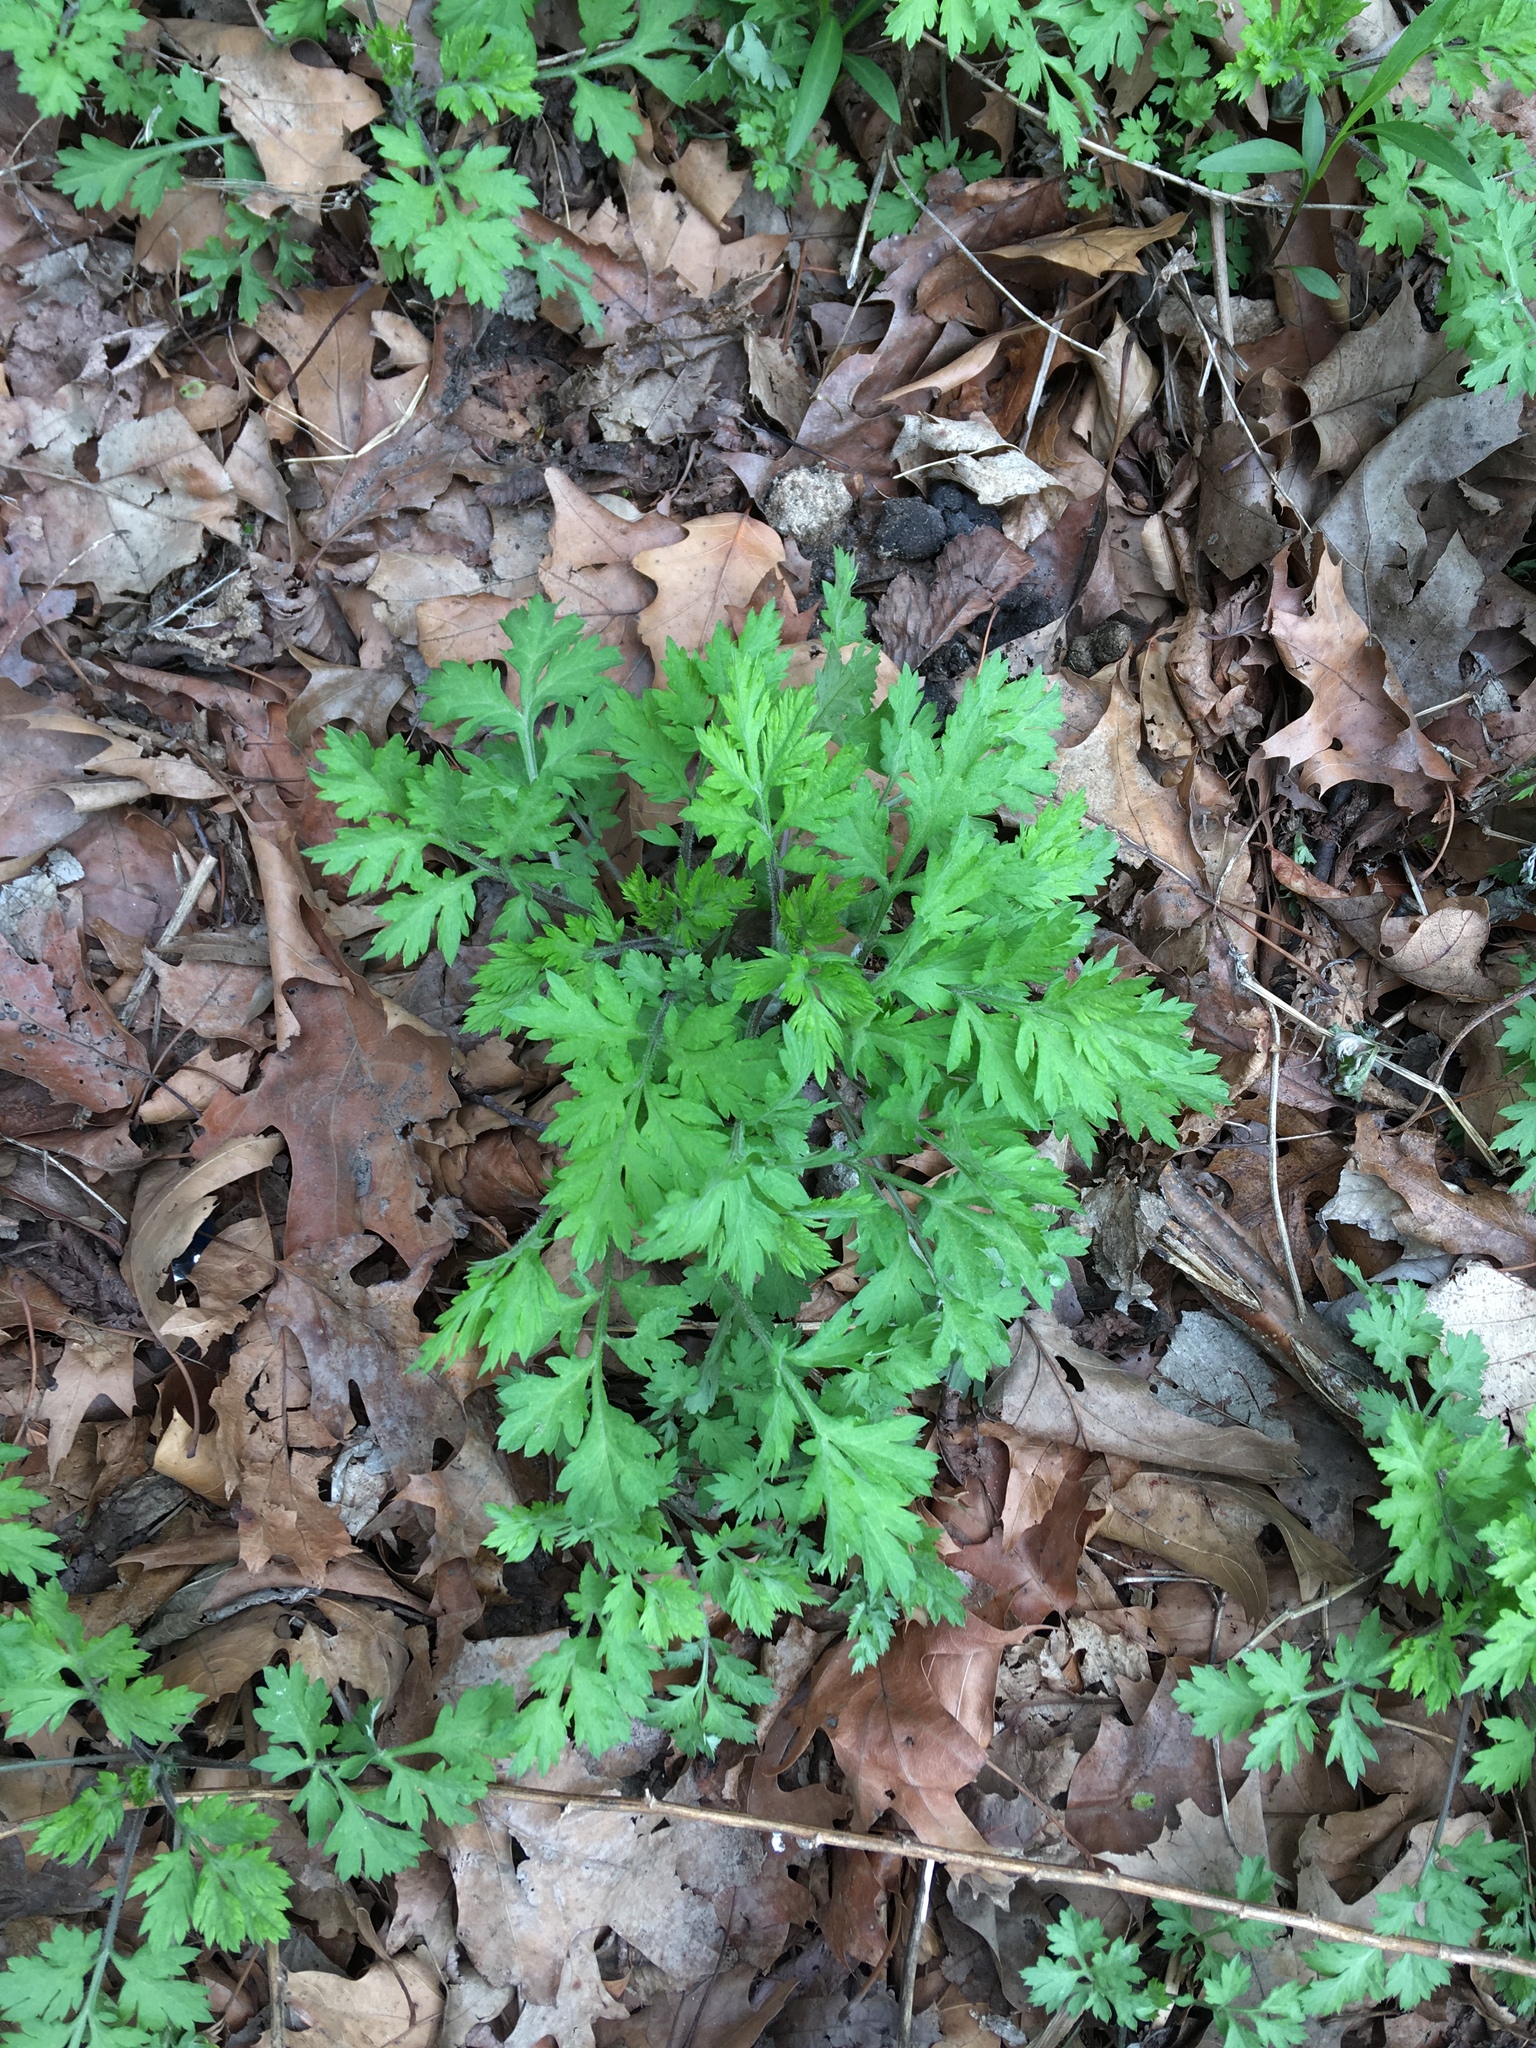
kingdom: Plantae
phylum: Tracheophyta
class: Magnoliopsida
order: Asterales
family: Asteraceae
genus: Artemisia
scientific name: Artemisia vulgaris
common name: Mugwort
